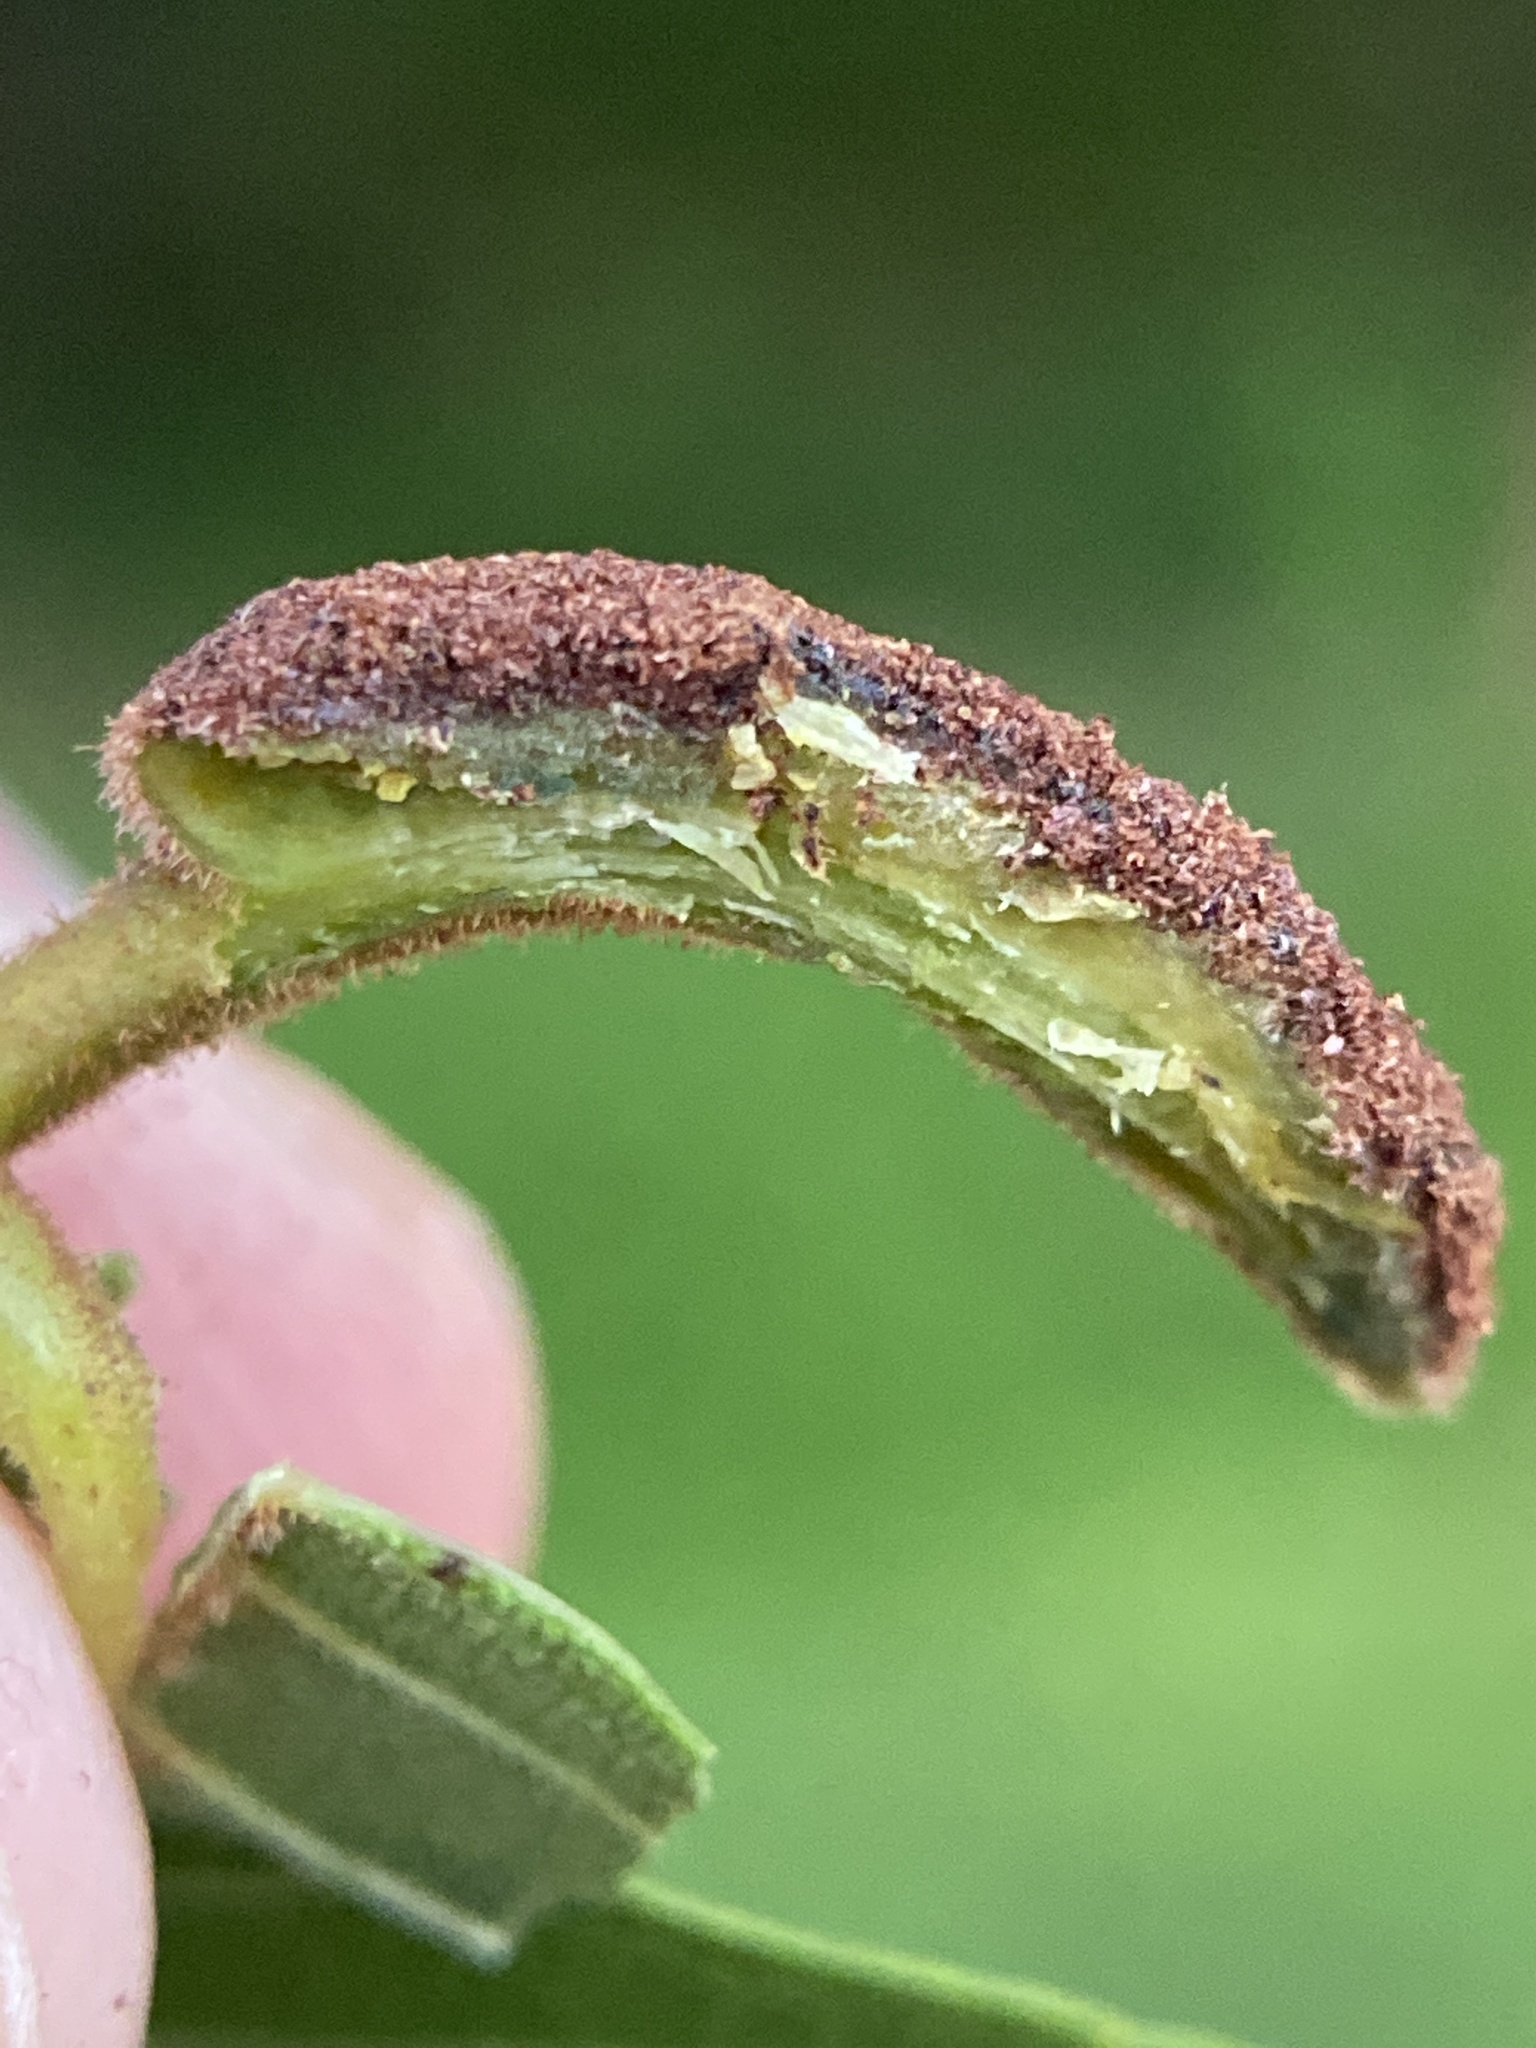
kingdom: Animalia
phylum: Arthropoda
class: Arachnida
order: Trombidiformes
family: Eriophyidae
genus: Aceria
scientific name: Aceria
